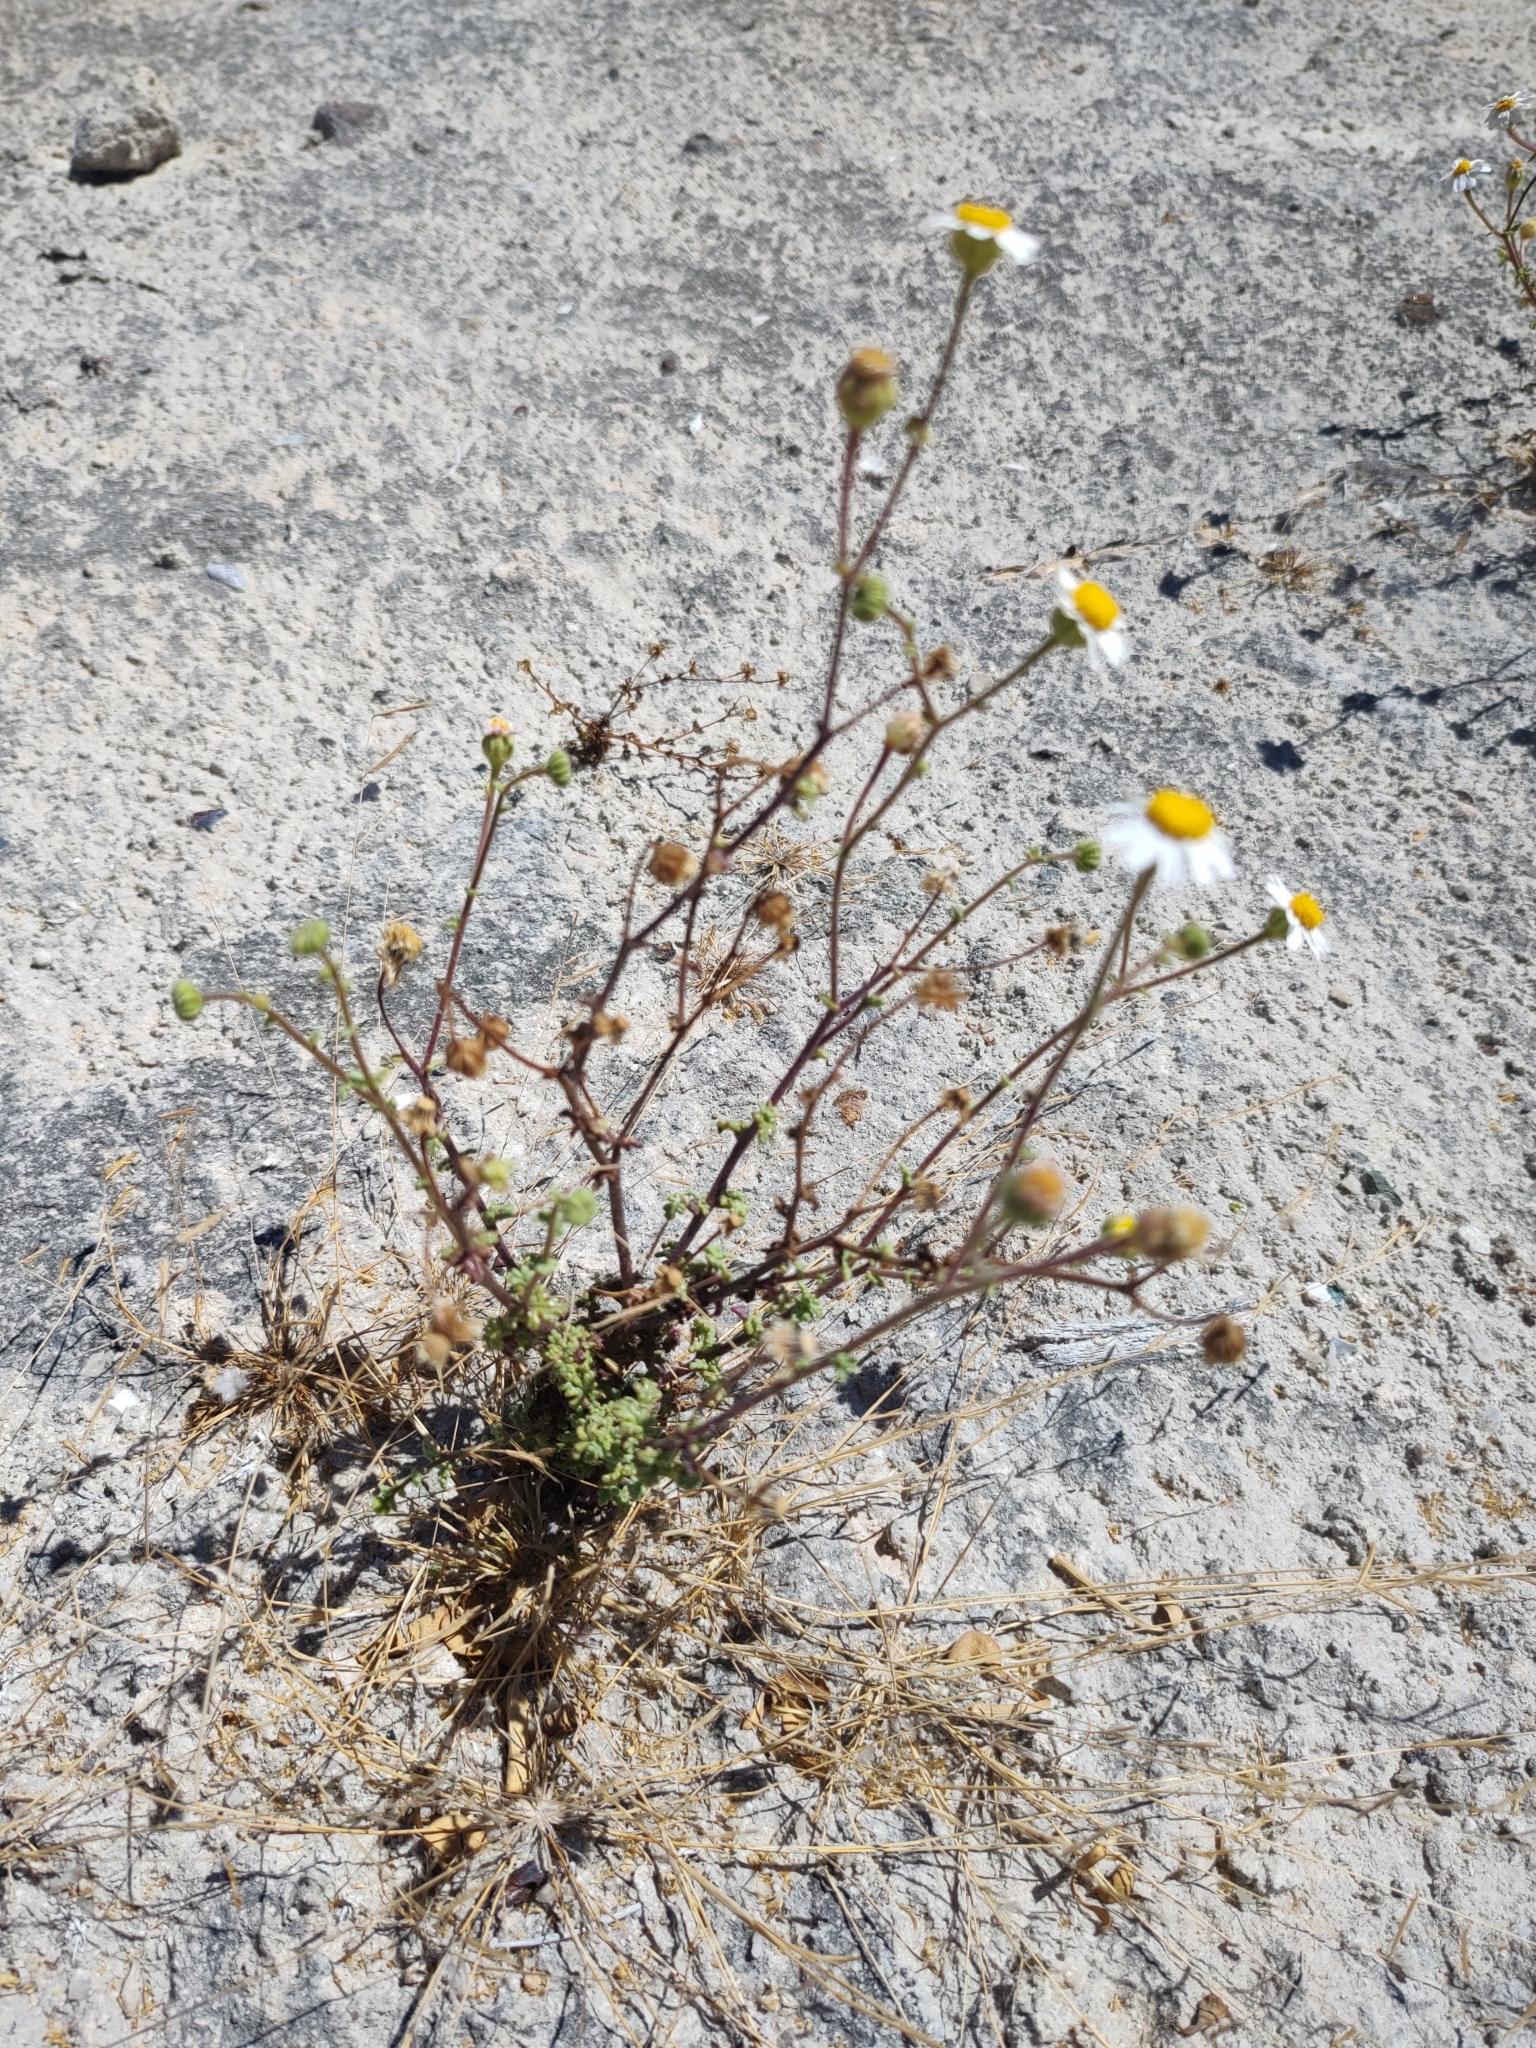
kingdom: Plantae
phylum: Tracheophyta
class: Magnoliopsida
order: Asterales
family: Asteraceae
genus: Perityle
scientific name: Perityle crassifolia
